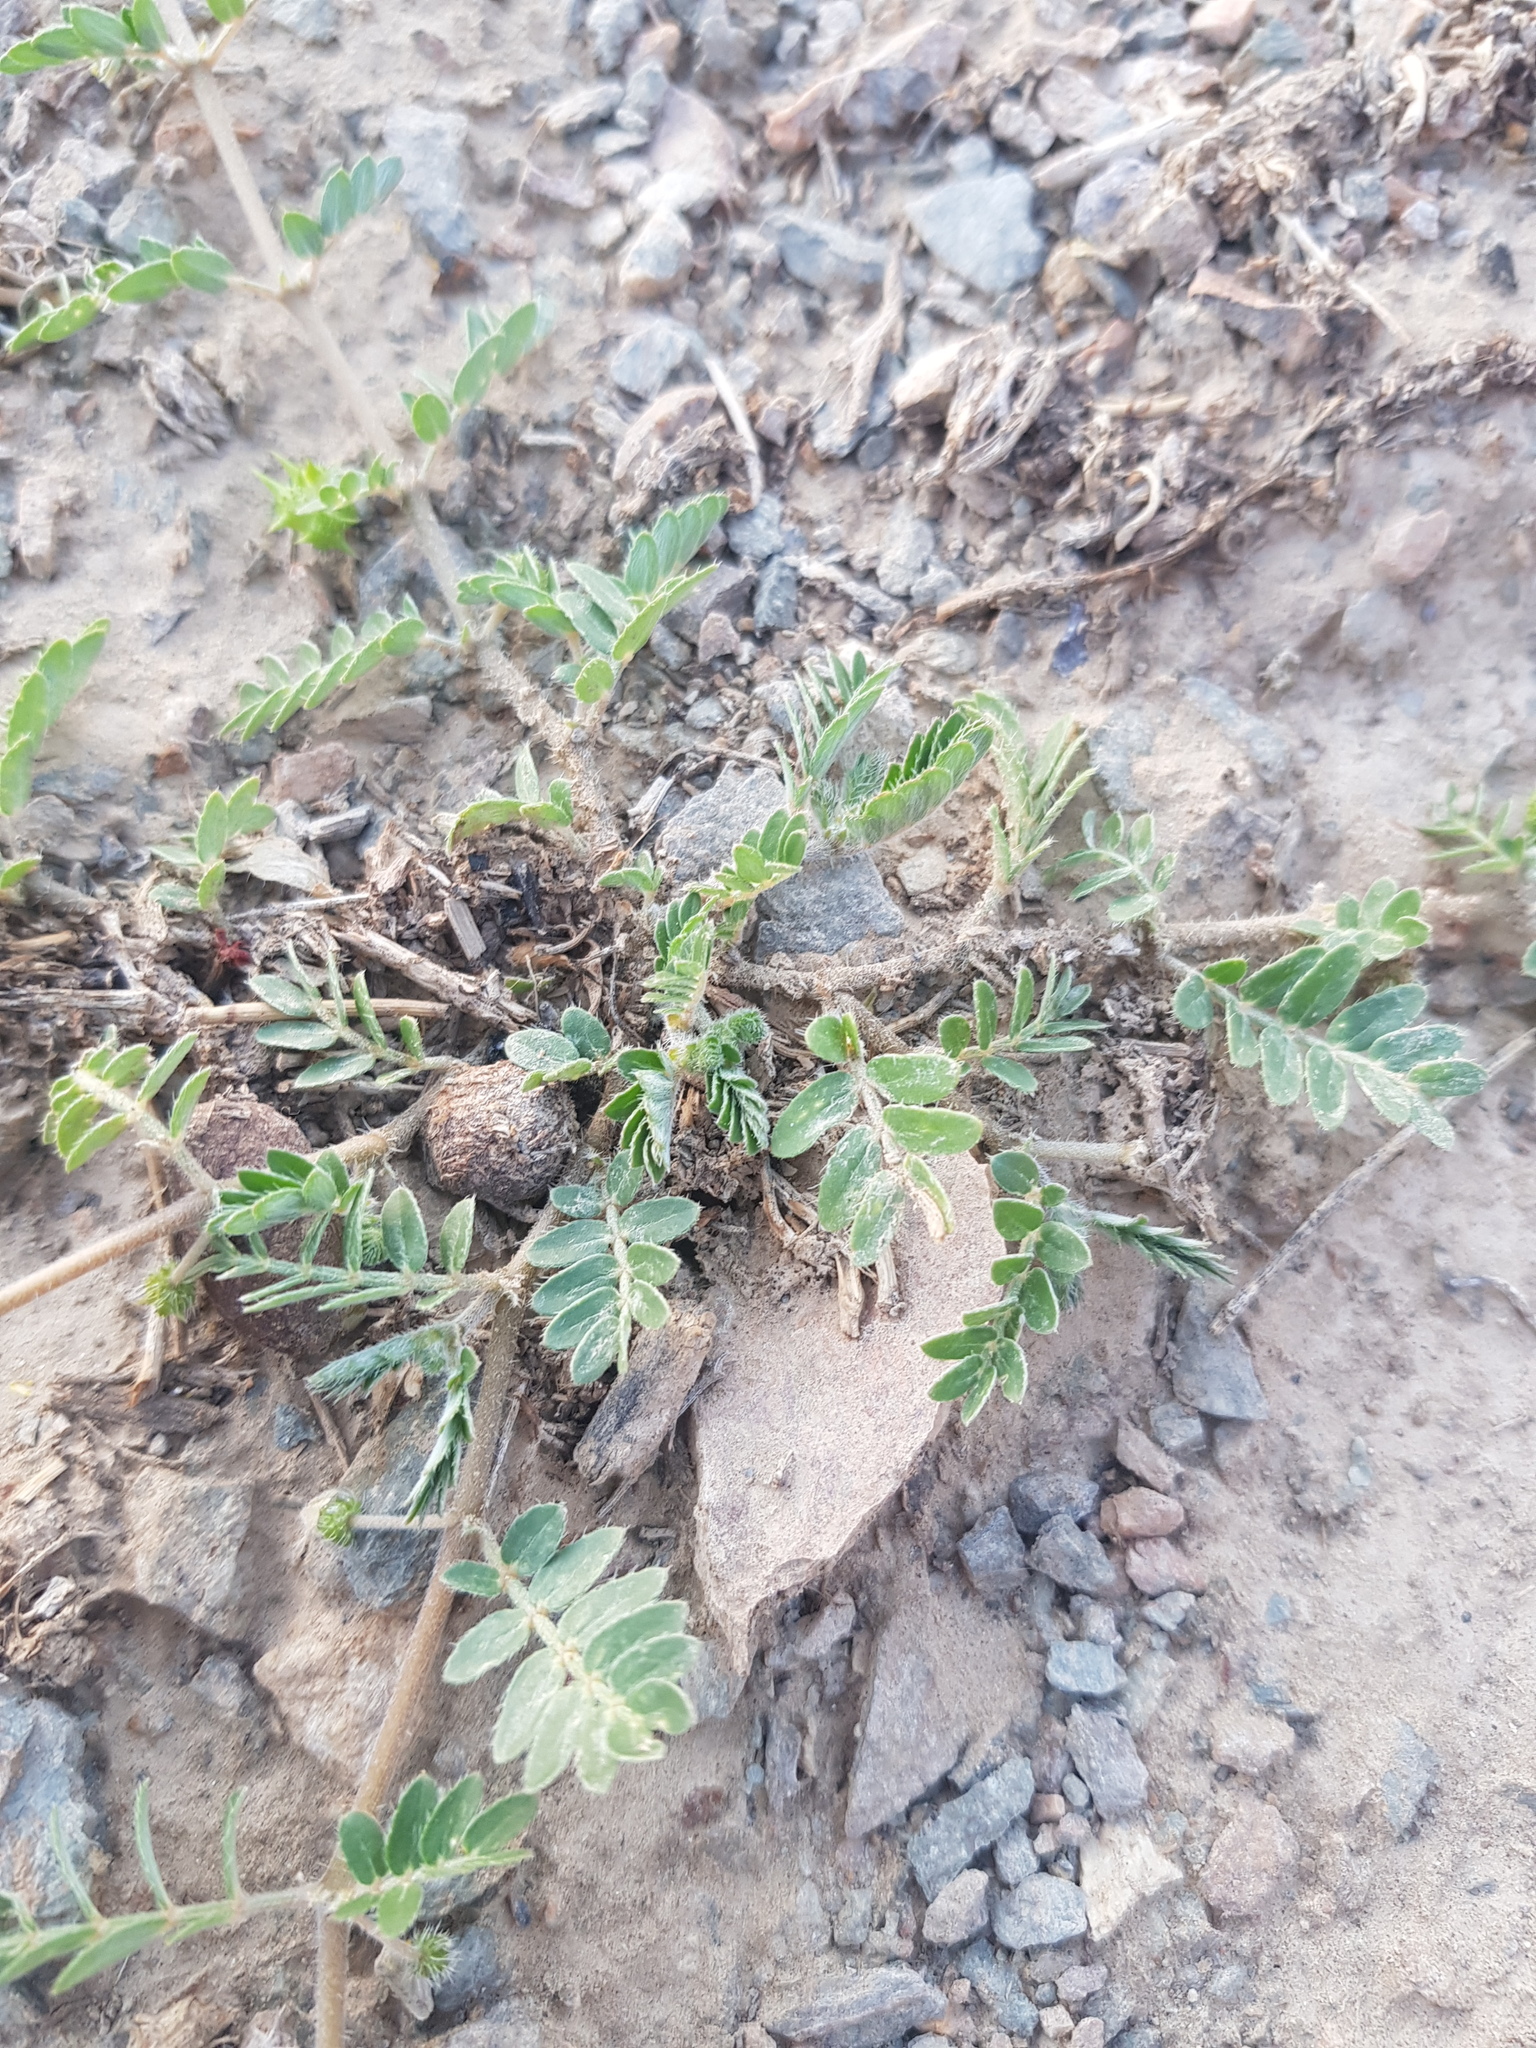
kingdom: Plantae
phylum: Tracheophyta
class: Magnoliopsida
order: Zygophyllales
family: Zygophyllaceae
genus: Tribulus
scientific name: Tribulus terrestris
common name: Puncturevine
